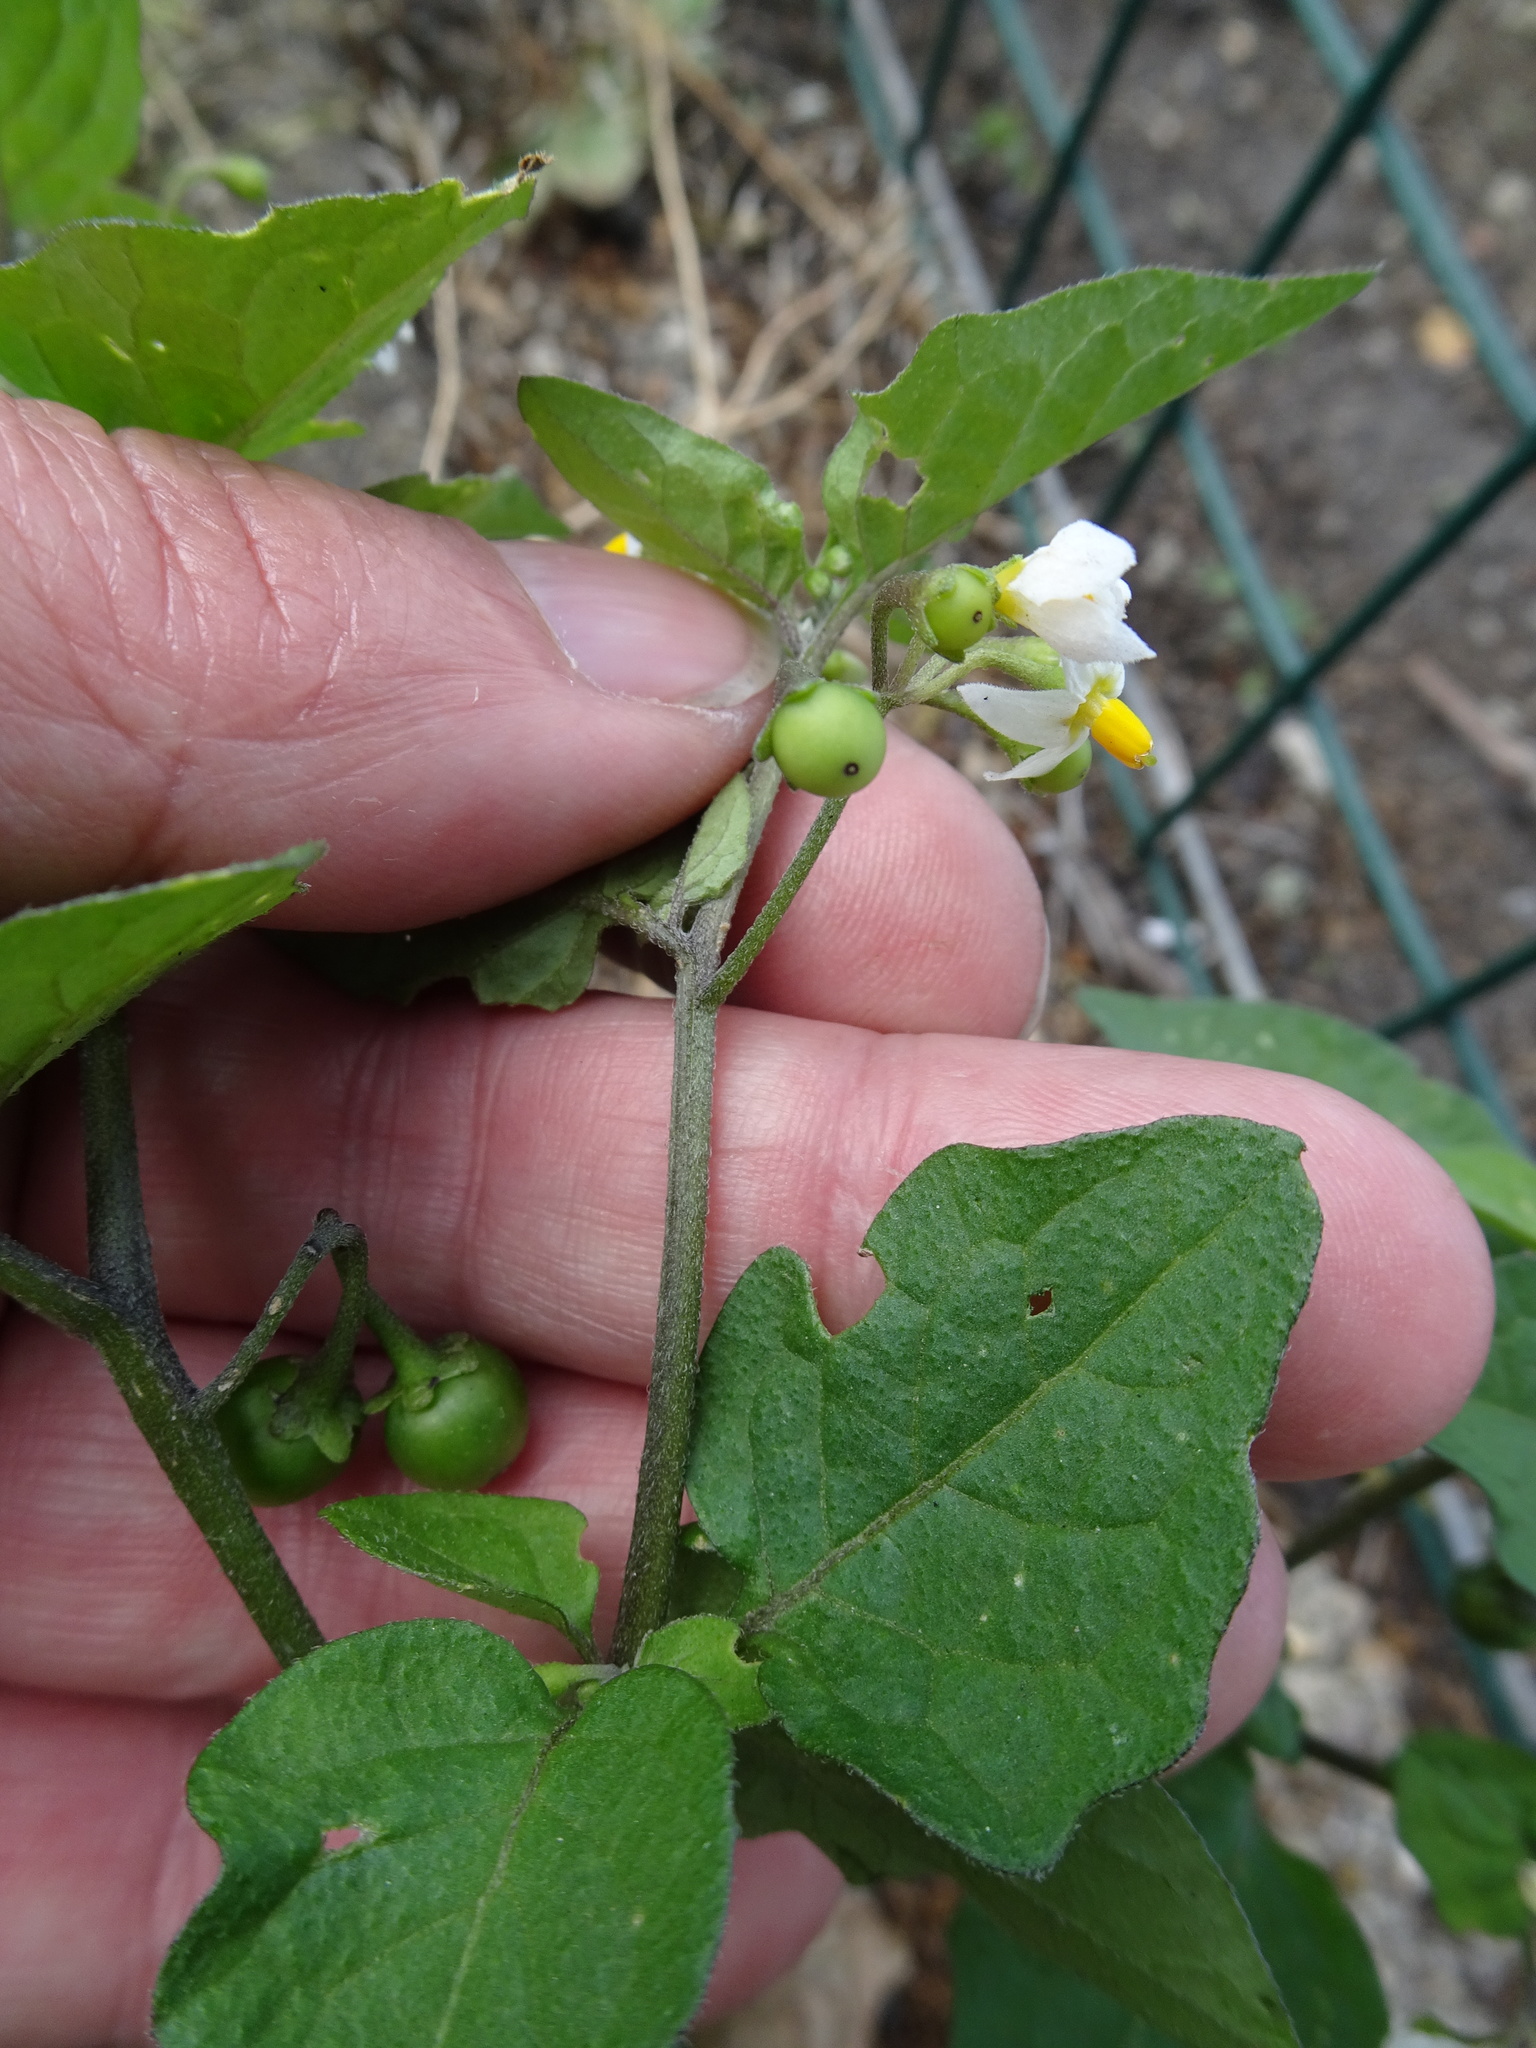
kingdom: Plantae
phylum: Tracheophyta
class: Magnoliopsida
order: Solanales
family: Solanaceae
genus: Solanum
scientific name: Solanum nigrum
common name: Black nightshade
